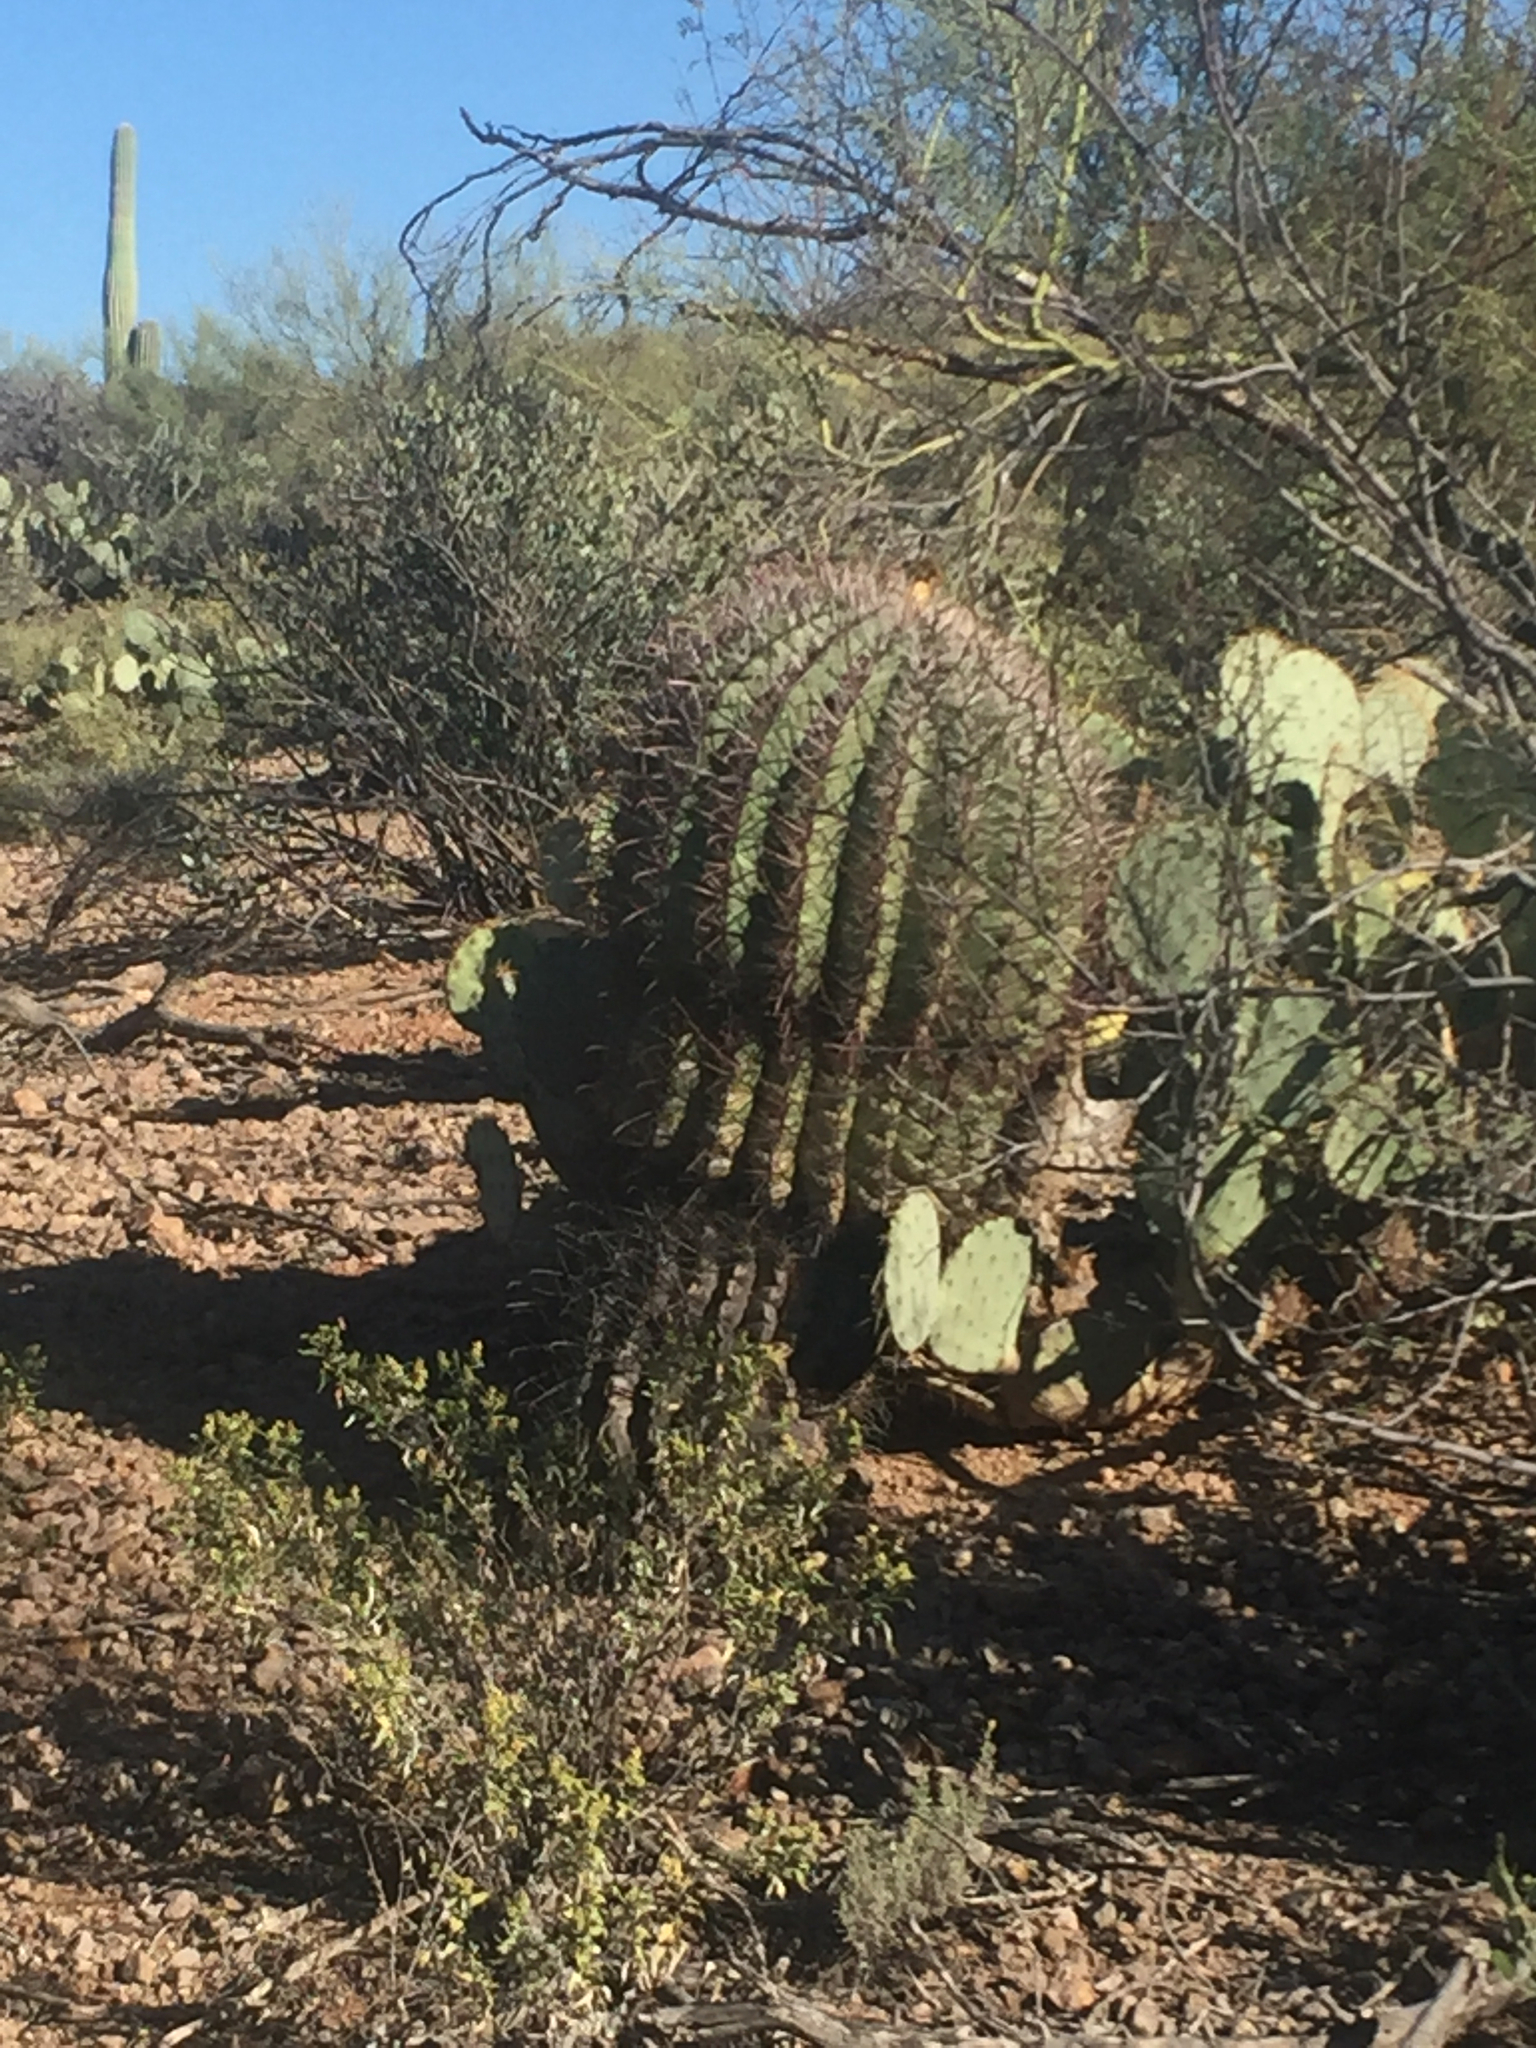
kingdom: Plantae
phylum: Tracheophyta
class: Magnoliopsida
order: Caryophyllales
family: Cactaceae
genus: Ferocactus
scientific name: Ferocactus wislizeni
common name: Candy barrel cactus
